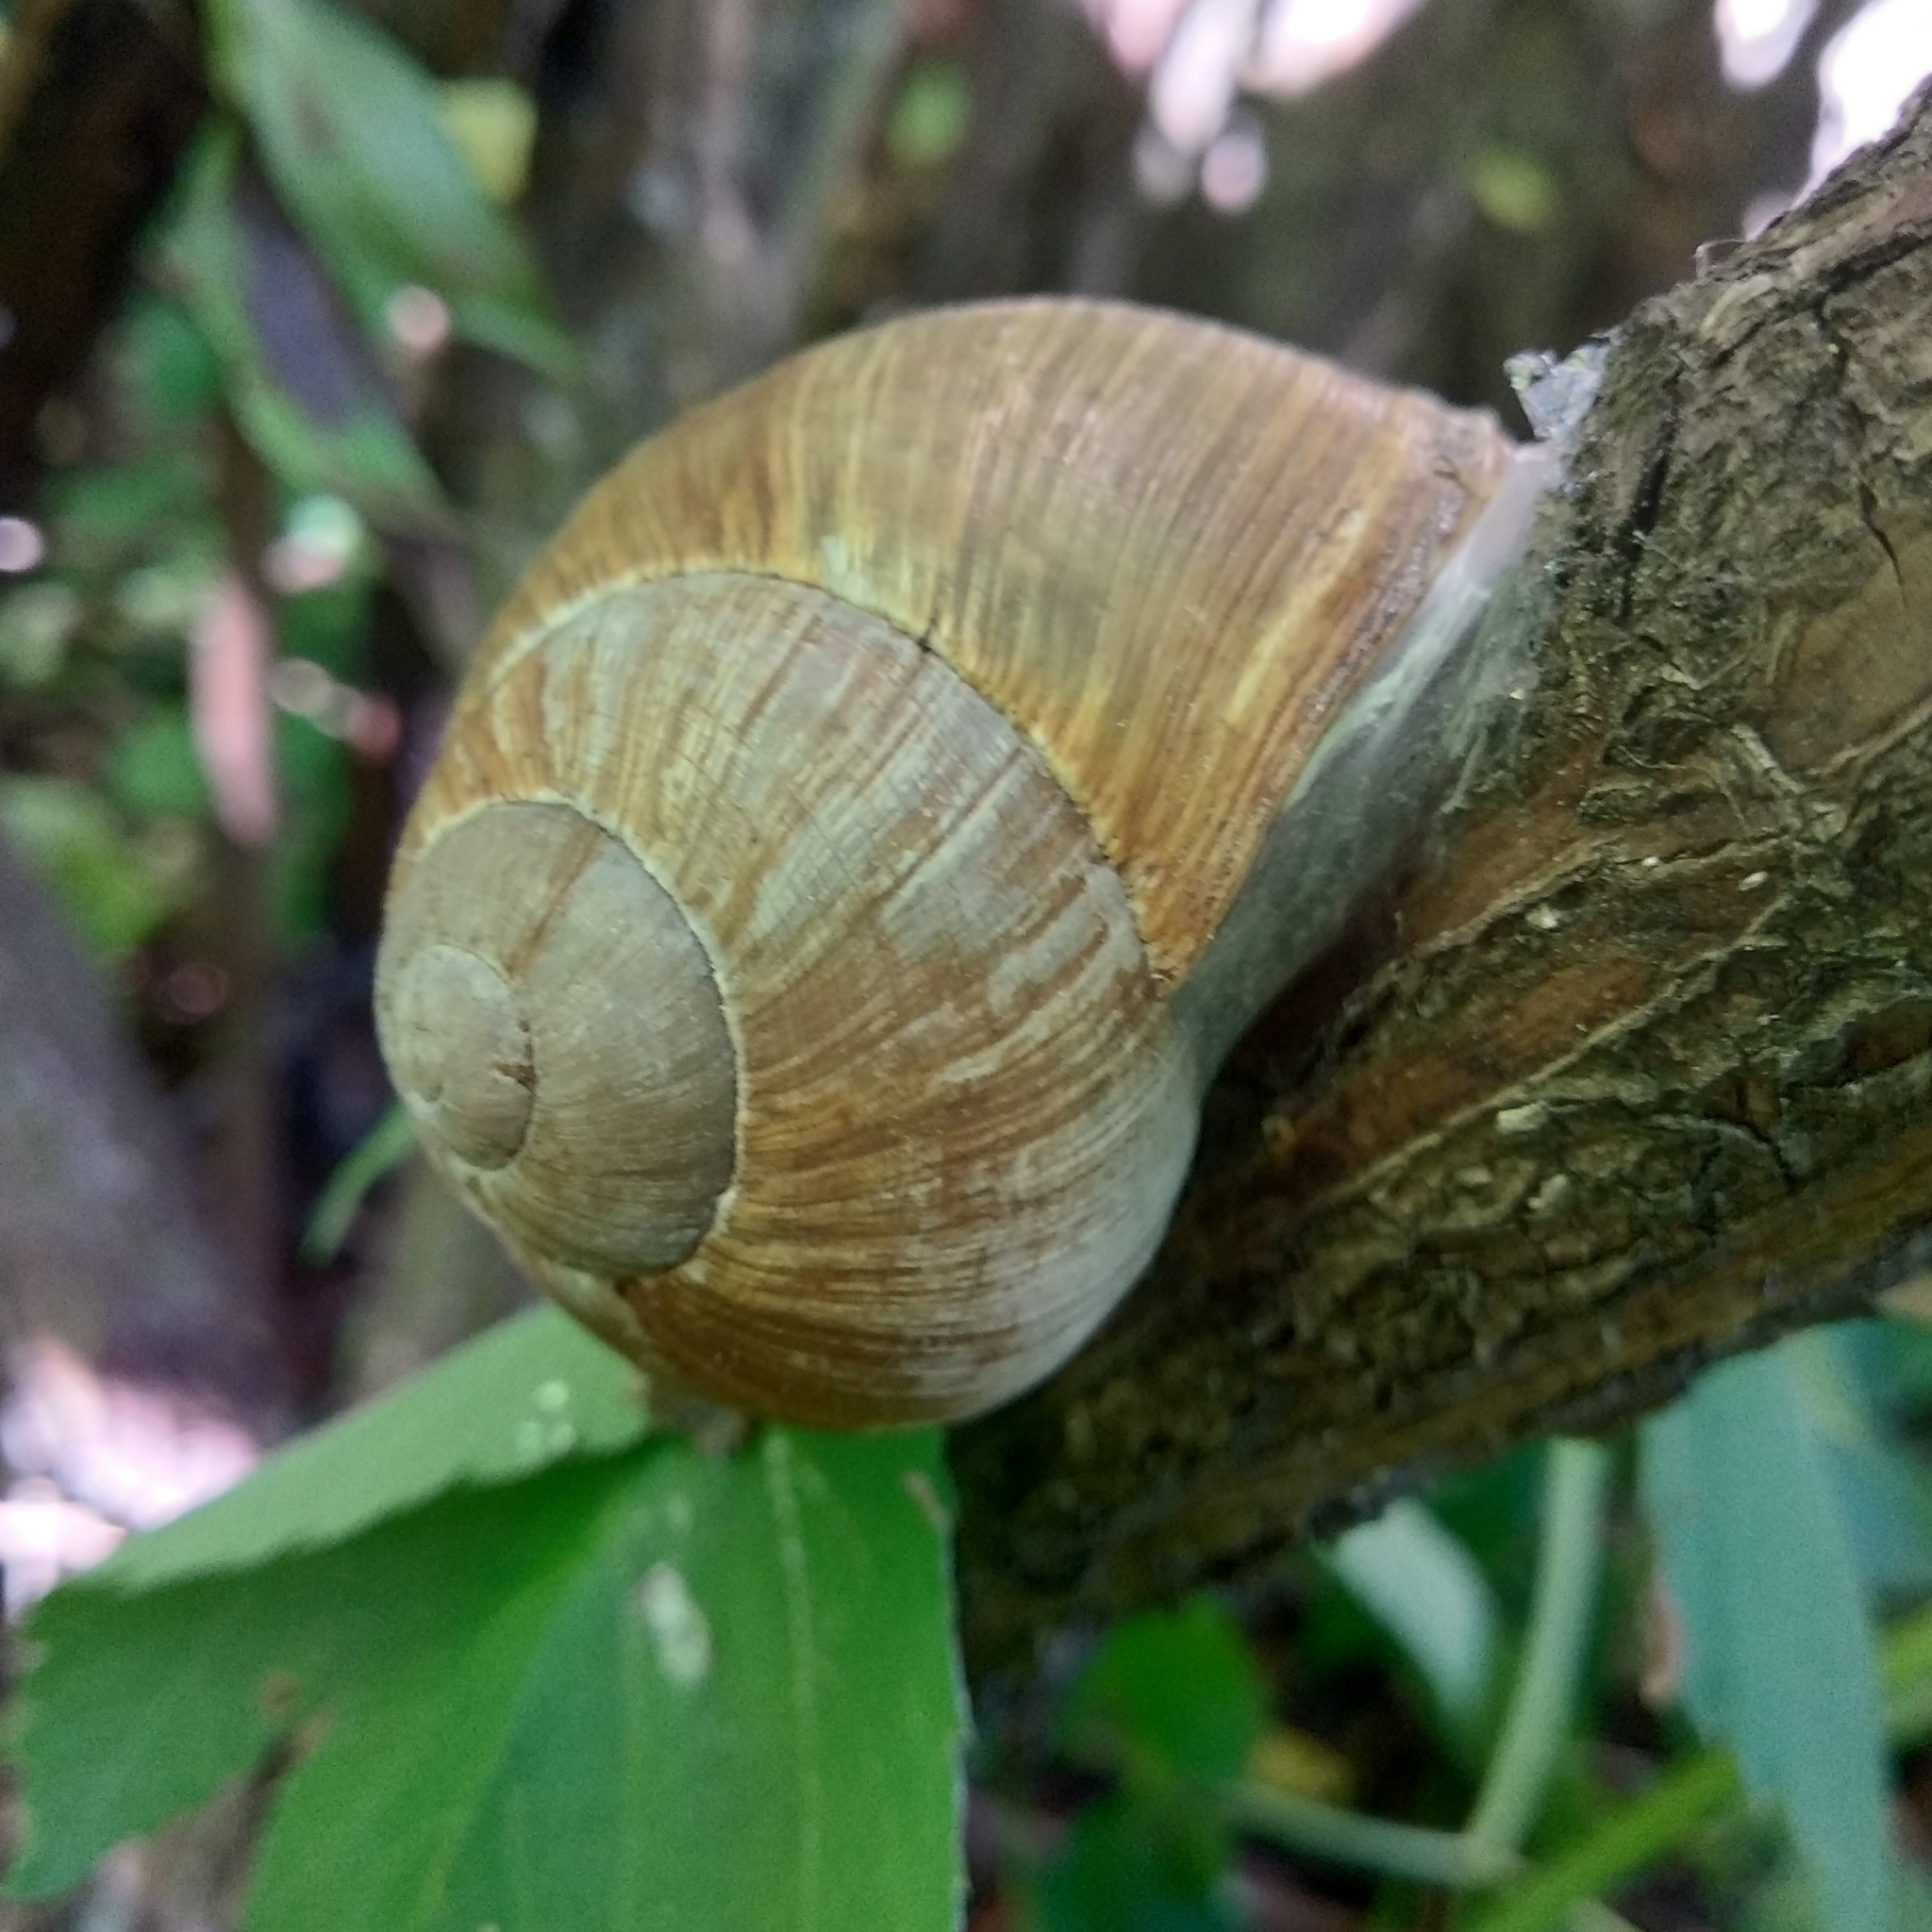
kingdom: Animalia
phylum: Mollusca
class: Gastropoda
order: Stylommatophora
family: Helicidae
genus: Helix
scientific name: Helix pomatia
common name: Roman snail
